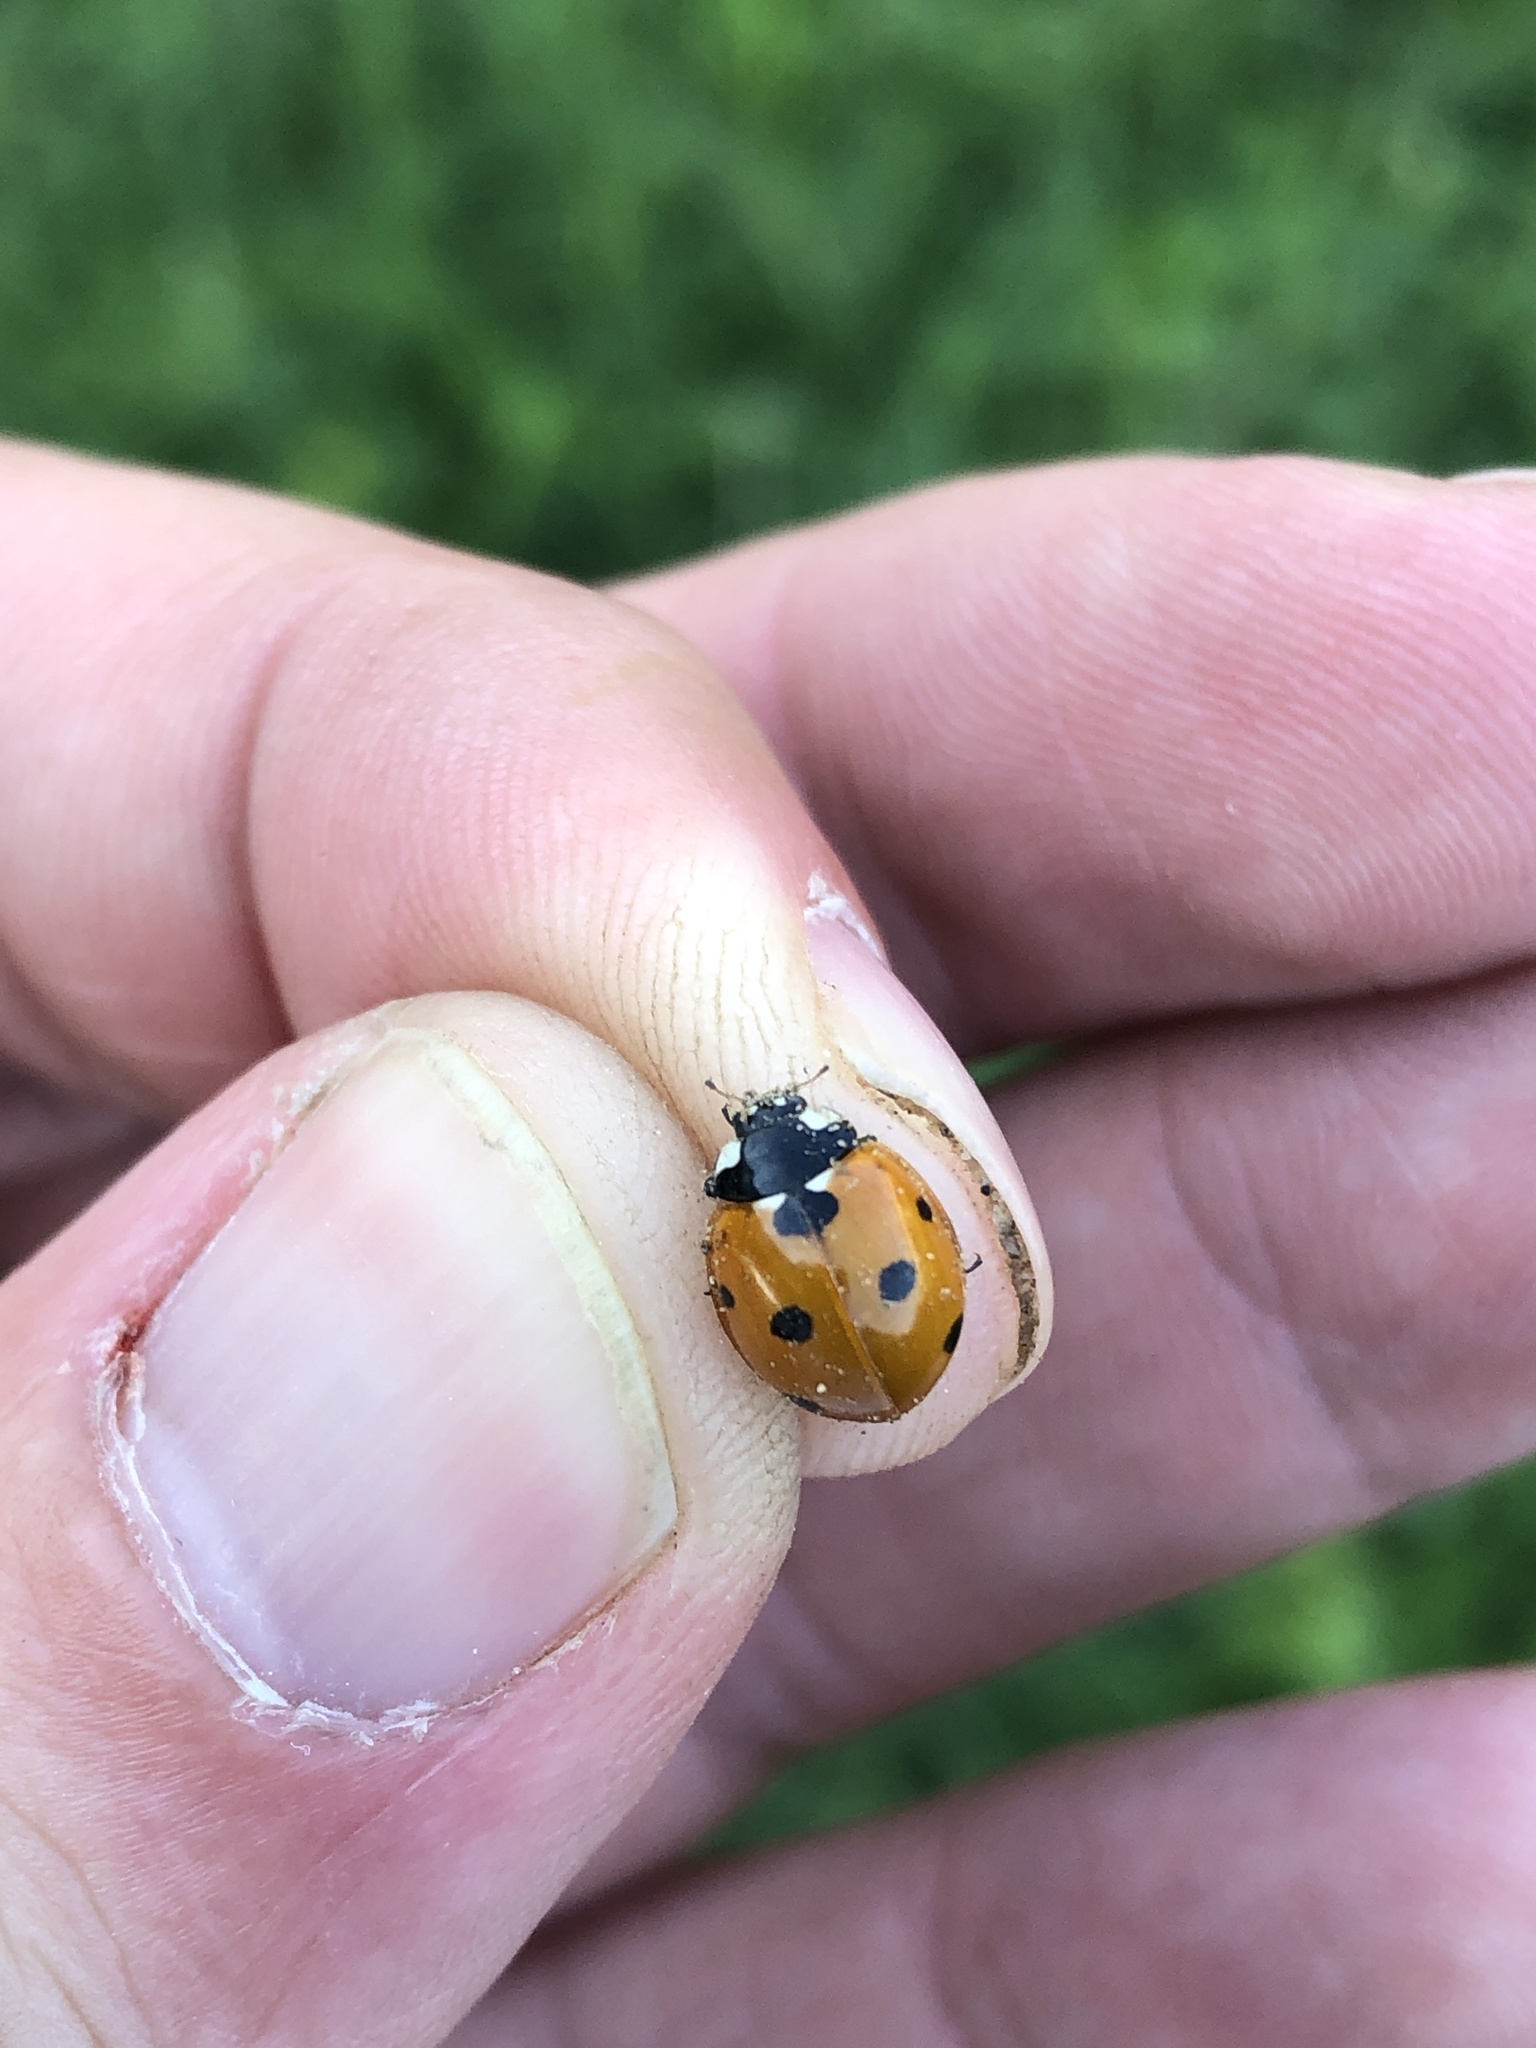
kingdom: Animalia
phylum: Arthropoda
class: Insecta
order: Coleoptera
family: Coccinellidae
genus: Coccinella
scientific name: Coccinella septempunctata
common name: Sevenspotted lady beetle
